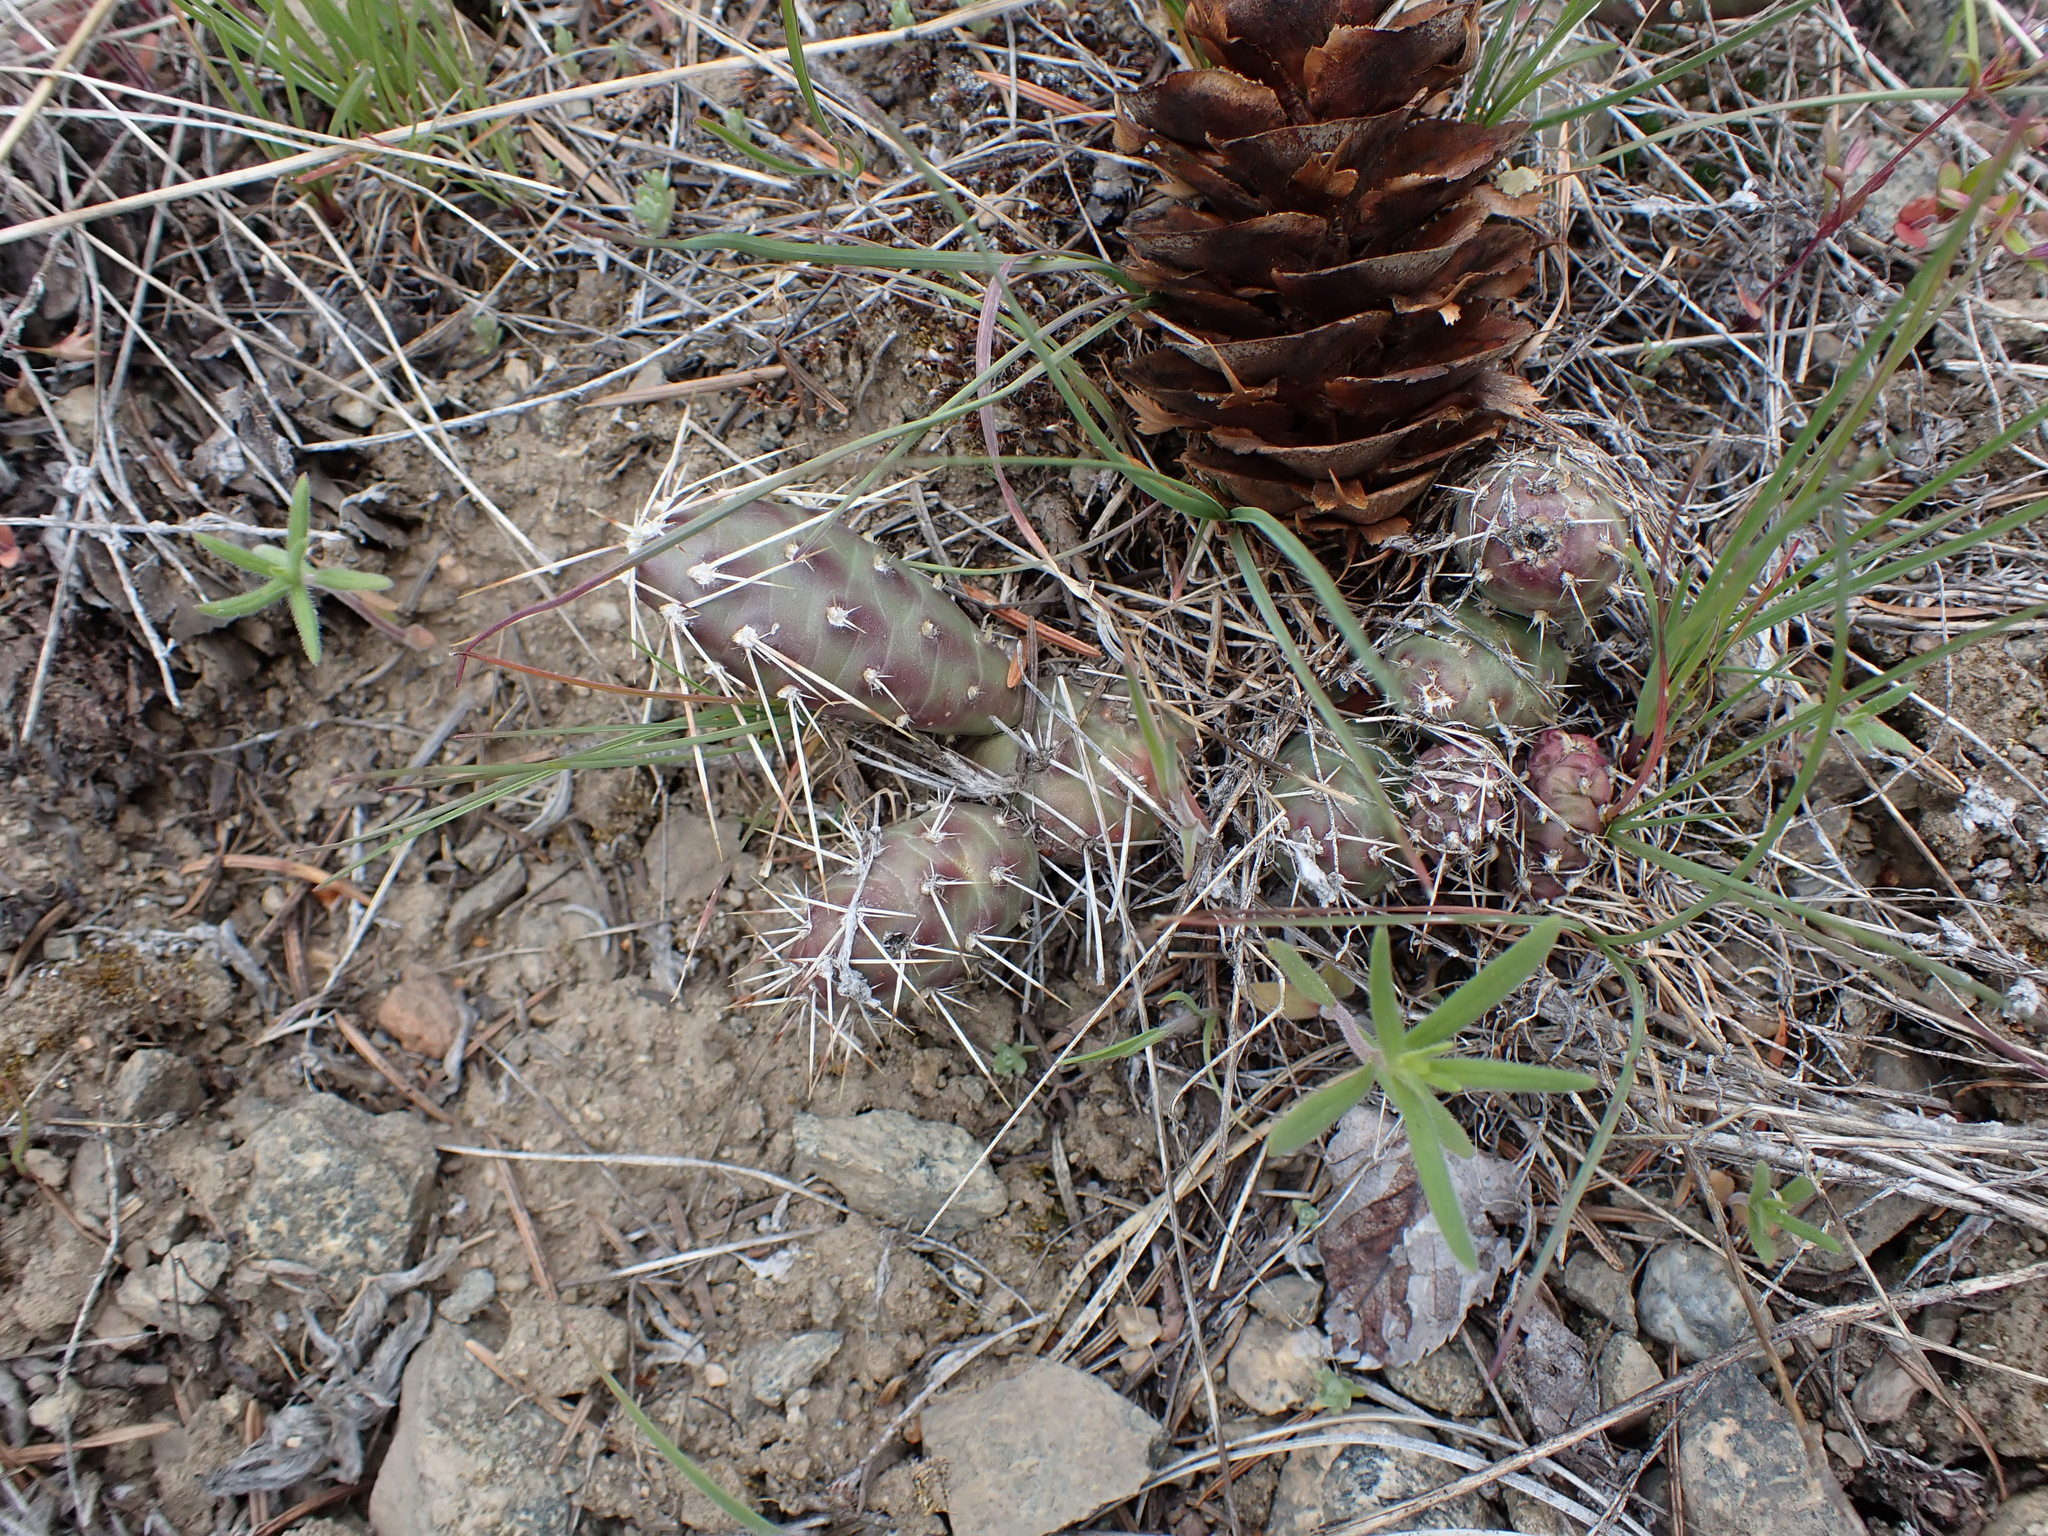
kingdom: Plantae
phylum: Tracheophyta
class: Magnoliopsida
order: Caryophyllales
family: Cactaceae
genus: Opuntia
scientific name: Opuntia fragilis
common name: Brittle cactus
